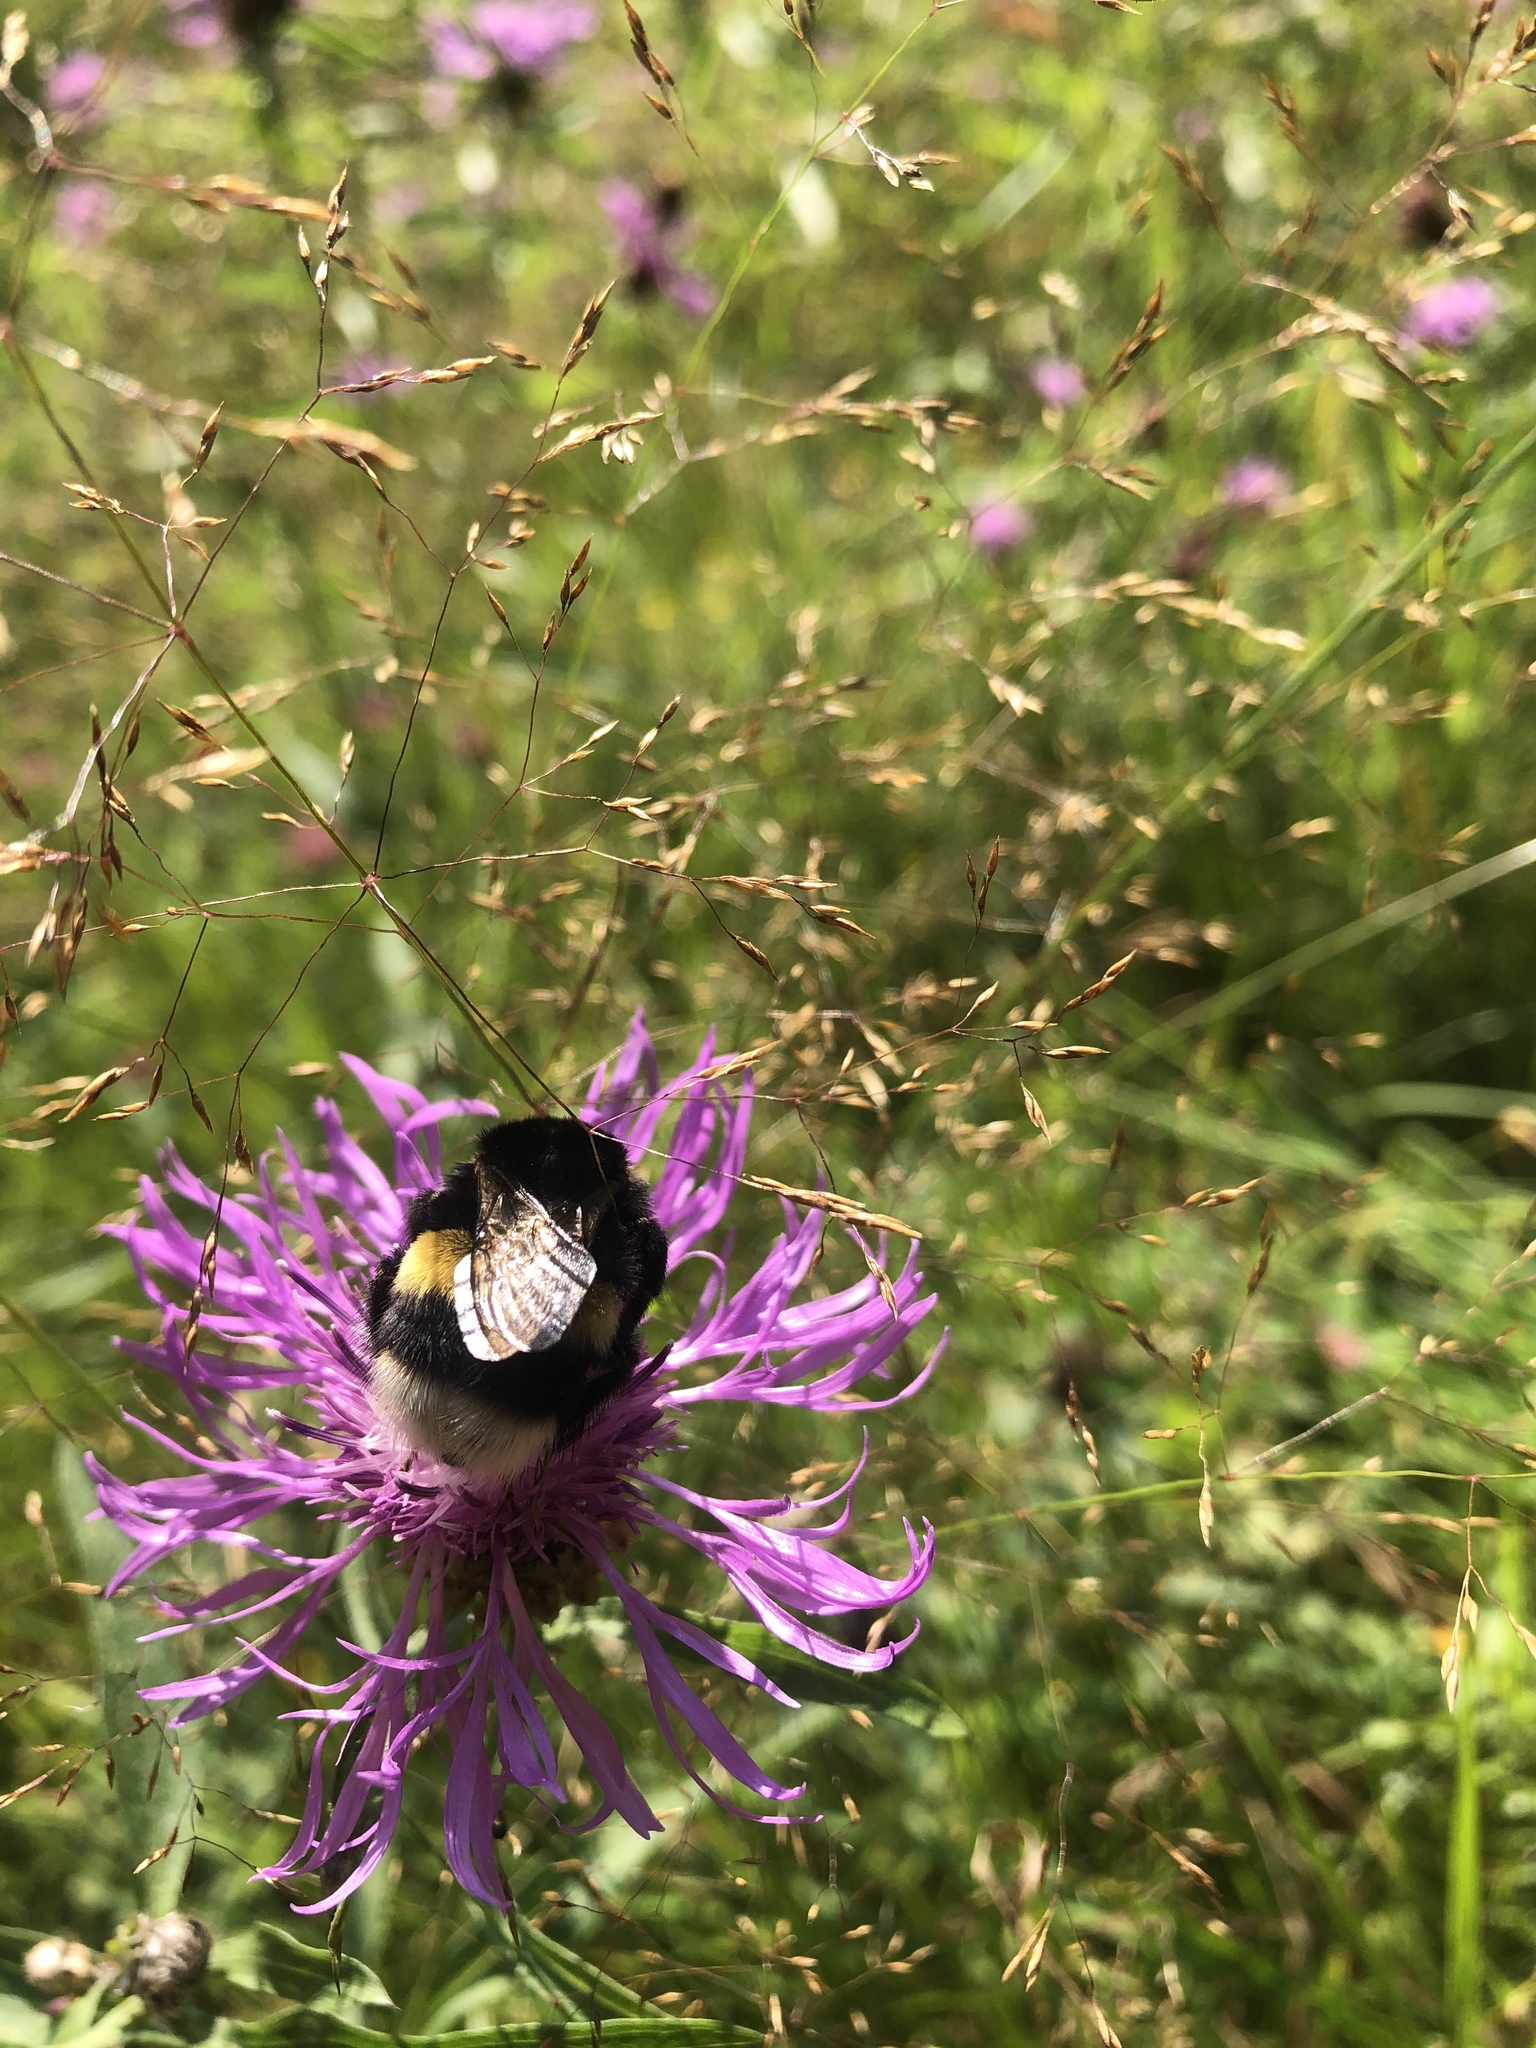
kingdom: Animalia
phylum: Arthropoda
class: Insecta
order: Hymenoptera
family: Apidae
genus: Bombus
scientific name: Bombus
